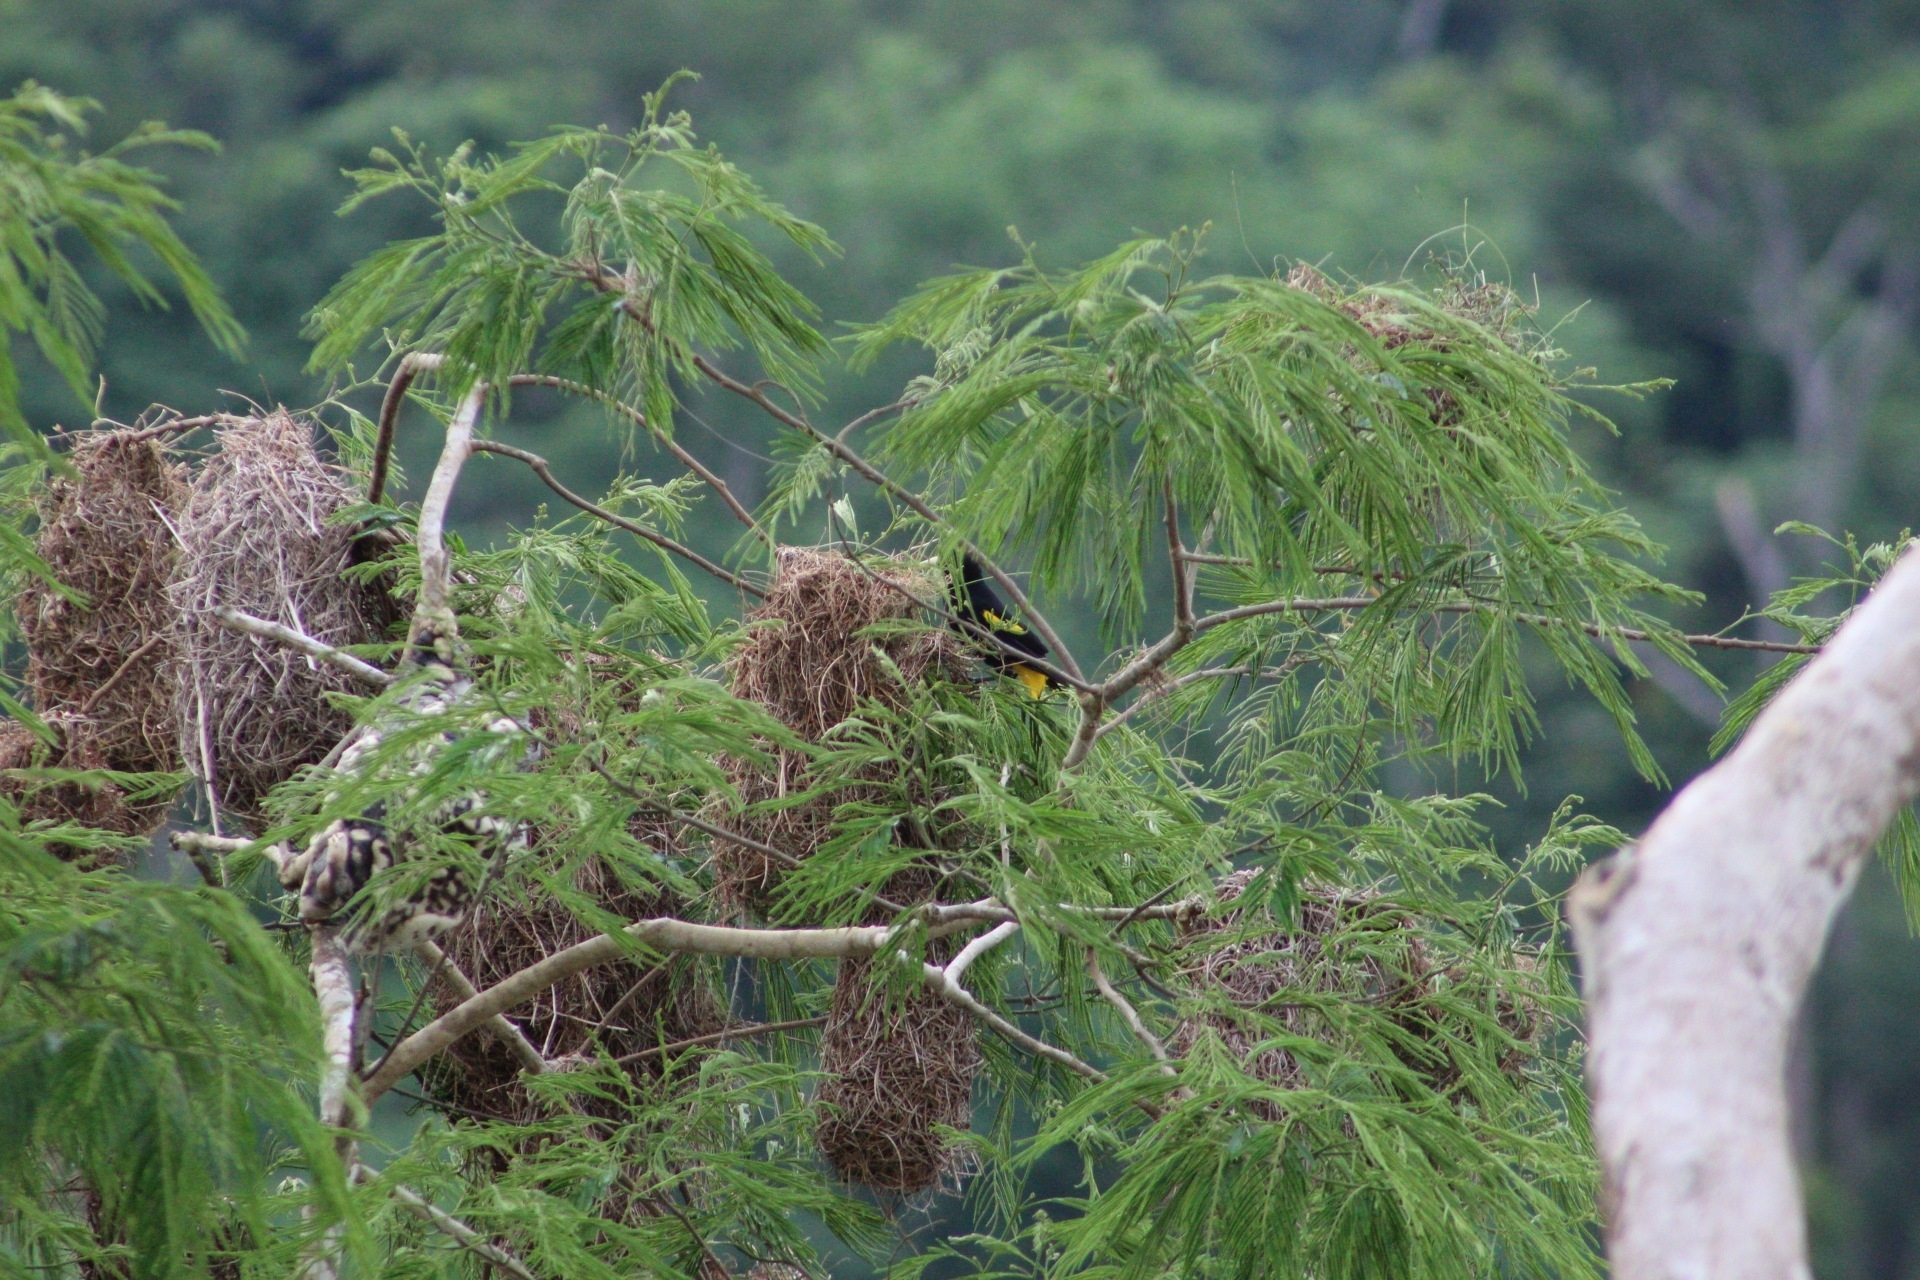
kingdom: Animalia
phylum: Chordata
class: Aves
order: Passeriformes
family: Icteridae
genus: Cacicus
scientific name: Cacicus cela
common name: Yellow-rumped cacique
